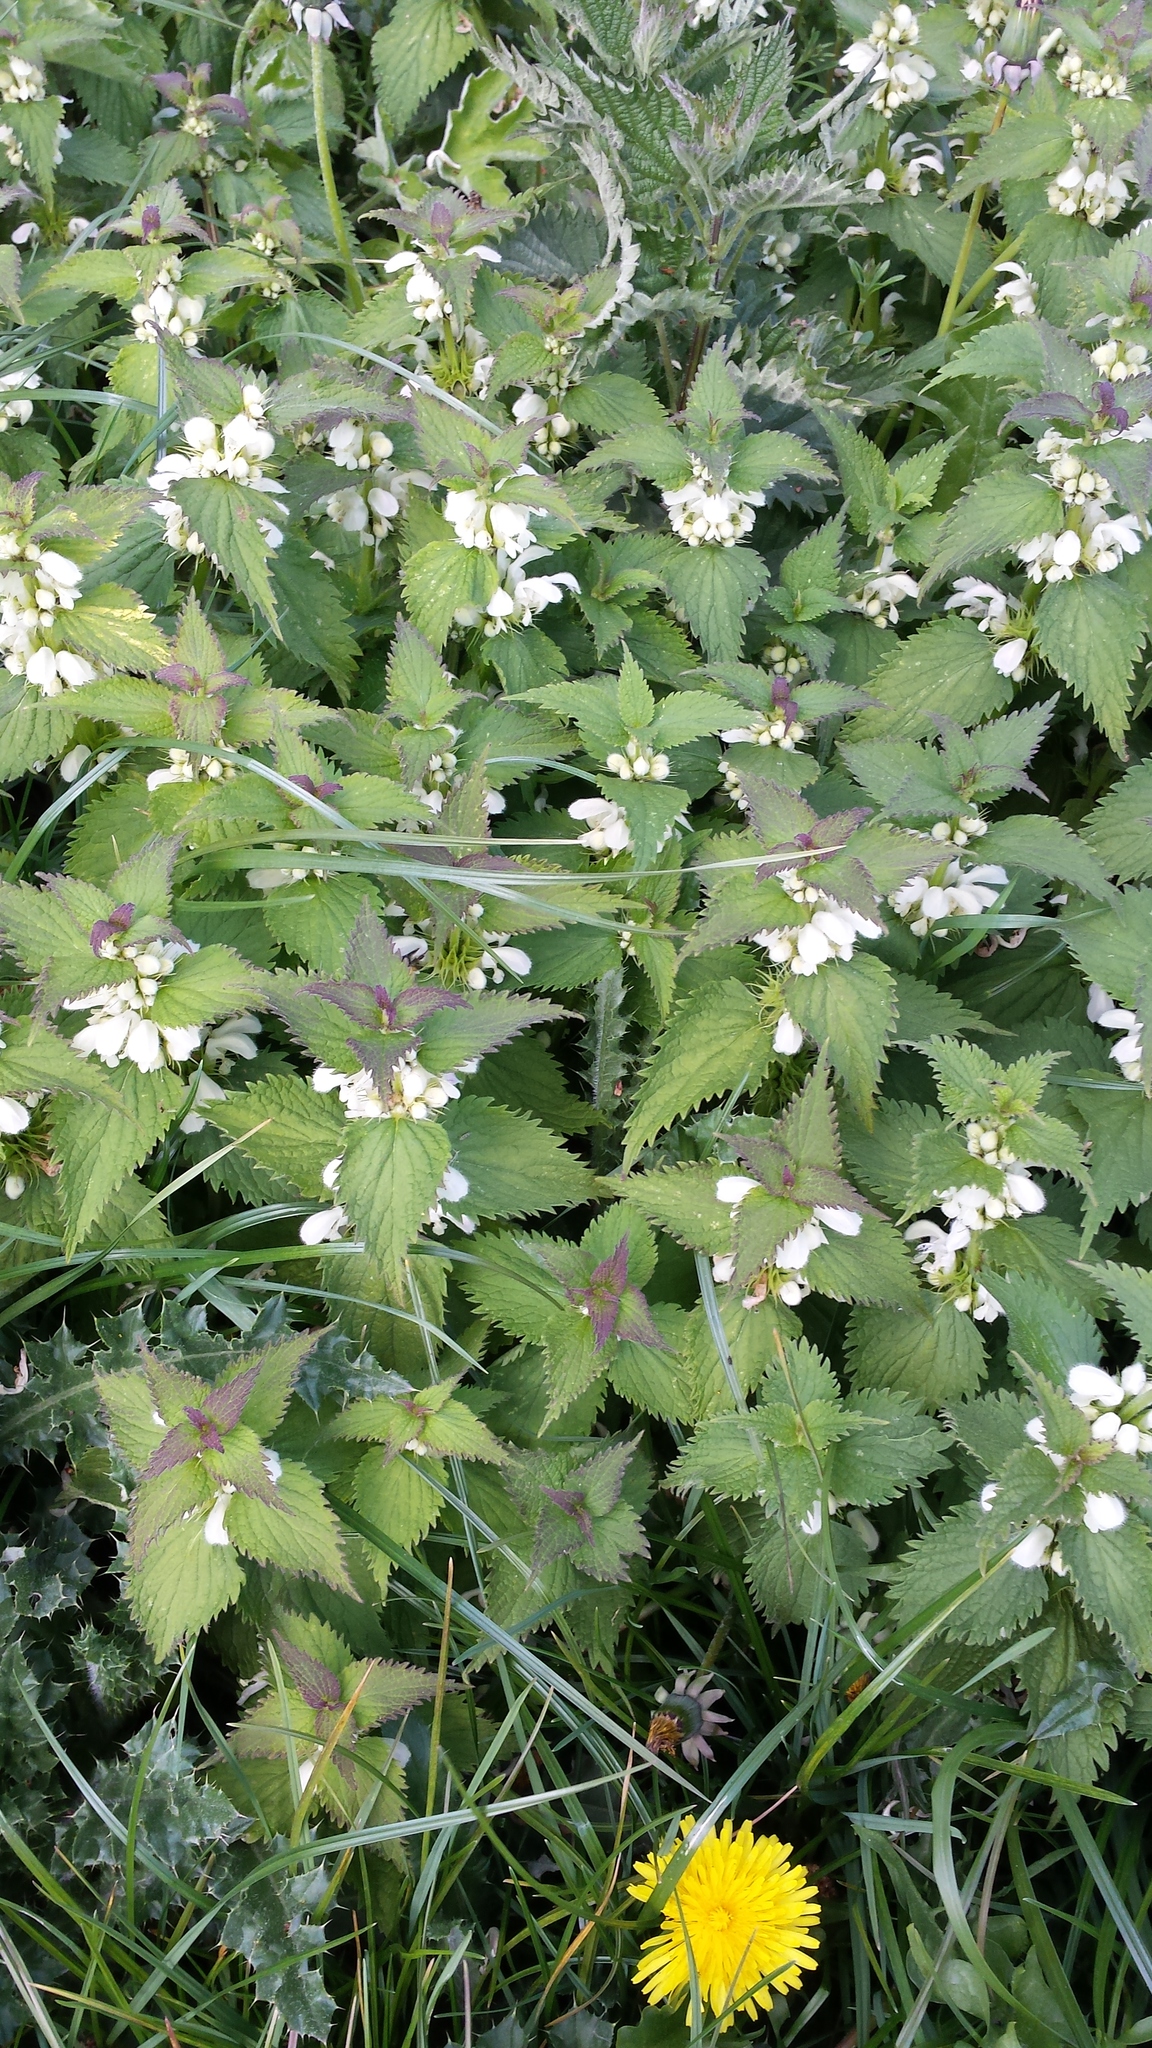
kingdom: Plantae
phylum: Tracheophyta
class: Magnoliopsida
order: Lamiales
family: Lamiaceae
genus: Lamium
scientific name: Lamium album
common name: White dead-nettle
